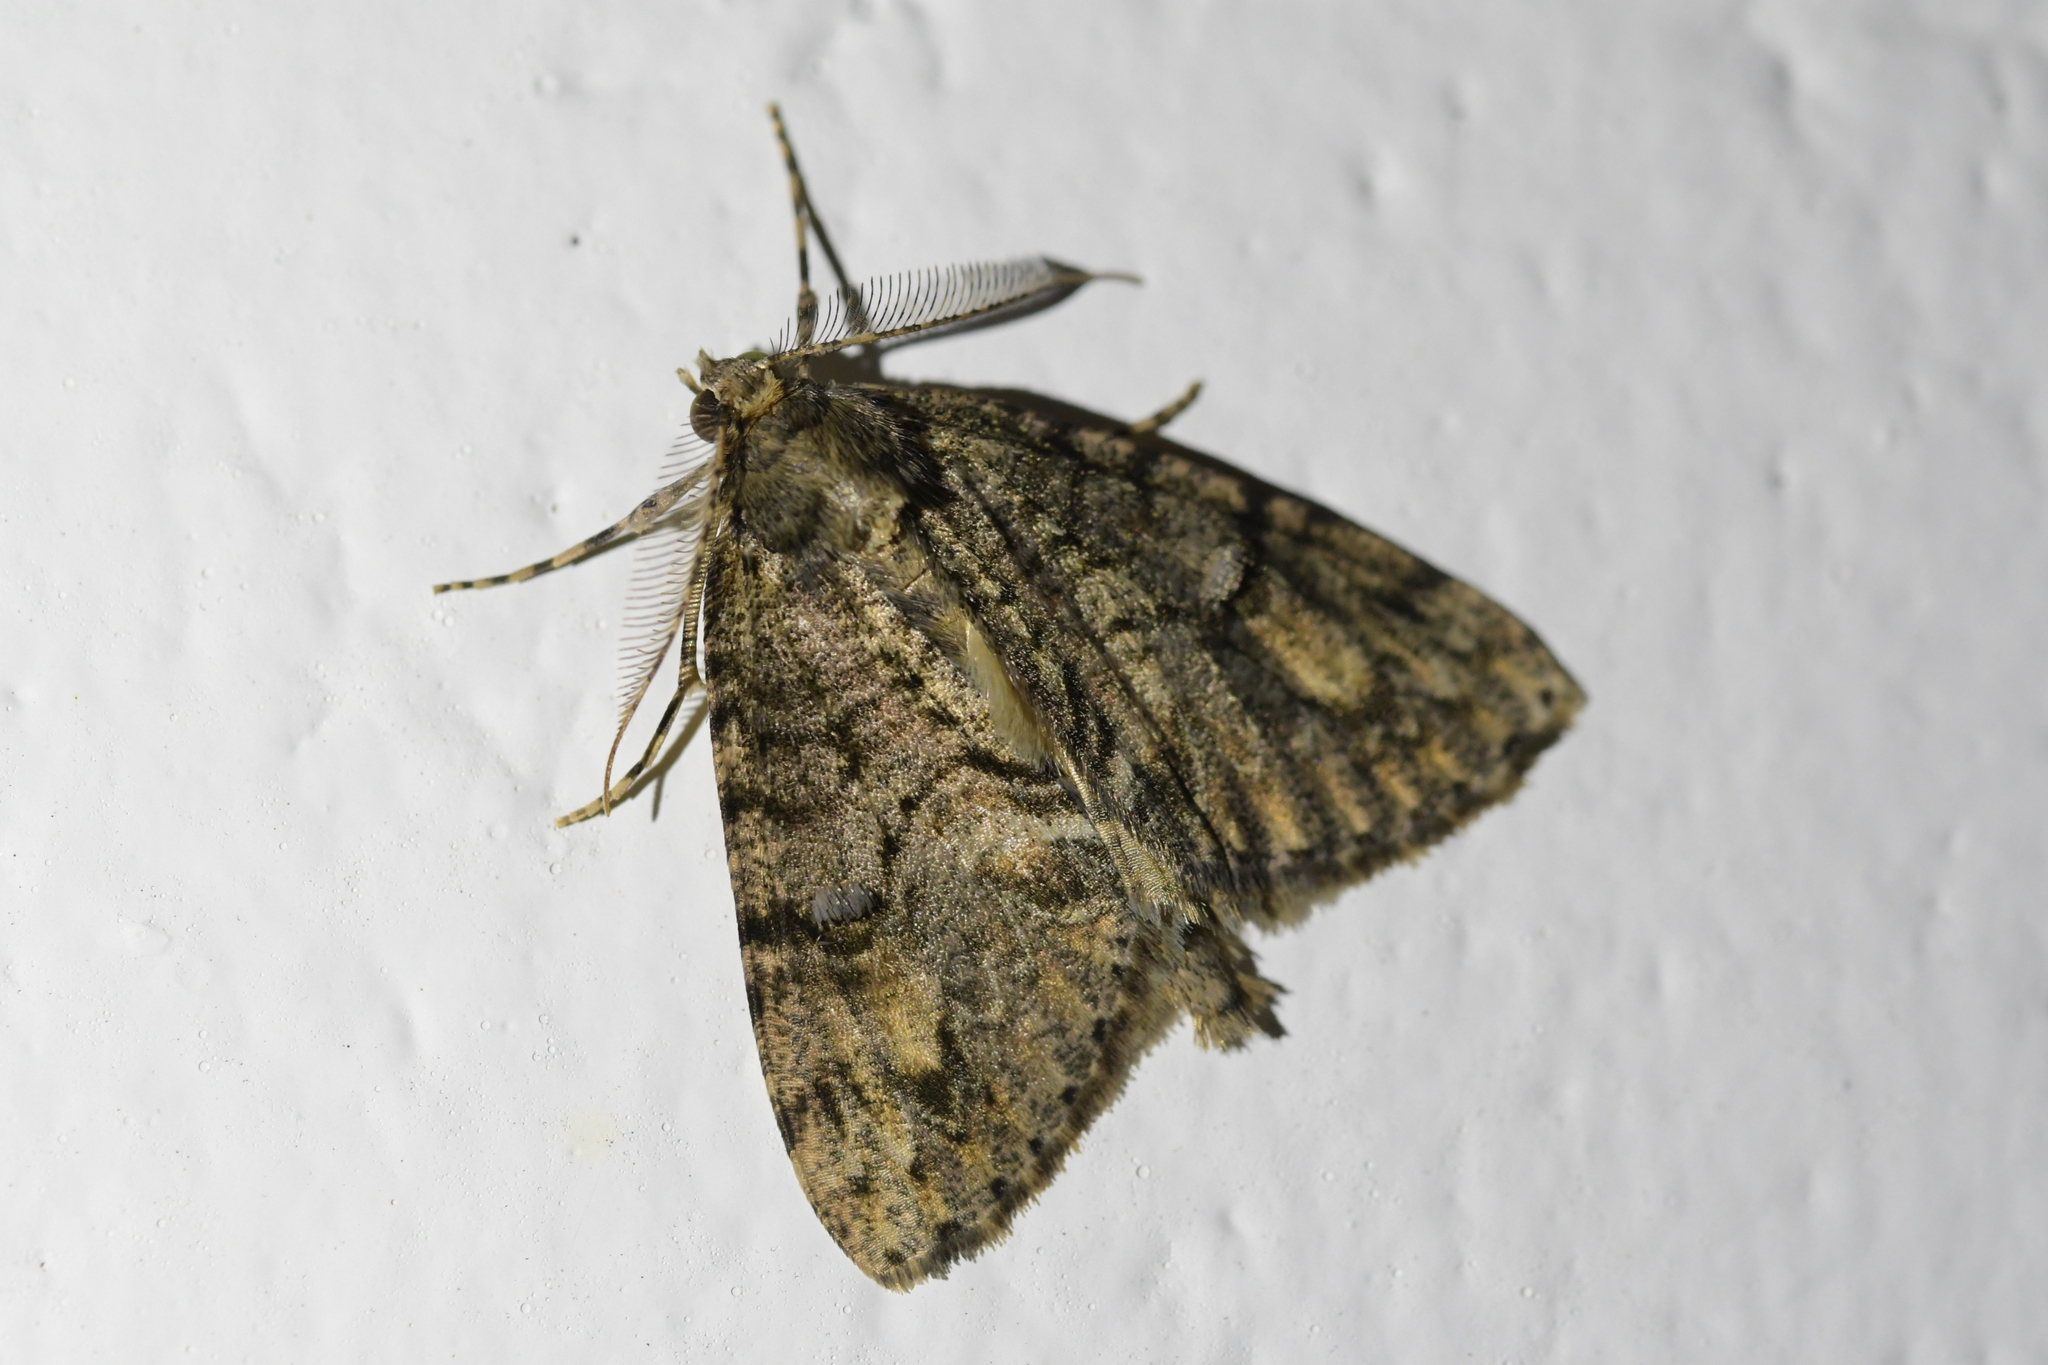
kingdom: Animalia
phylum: Arthropoda
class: Insecta
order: Lepidoptera
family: Geometridae
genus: Pseudocoremia
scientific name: Pseudocoremia suavis
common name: Common forest looper
